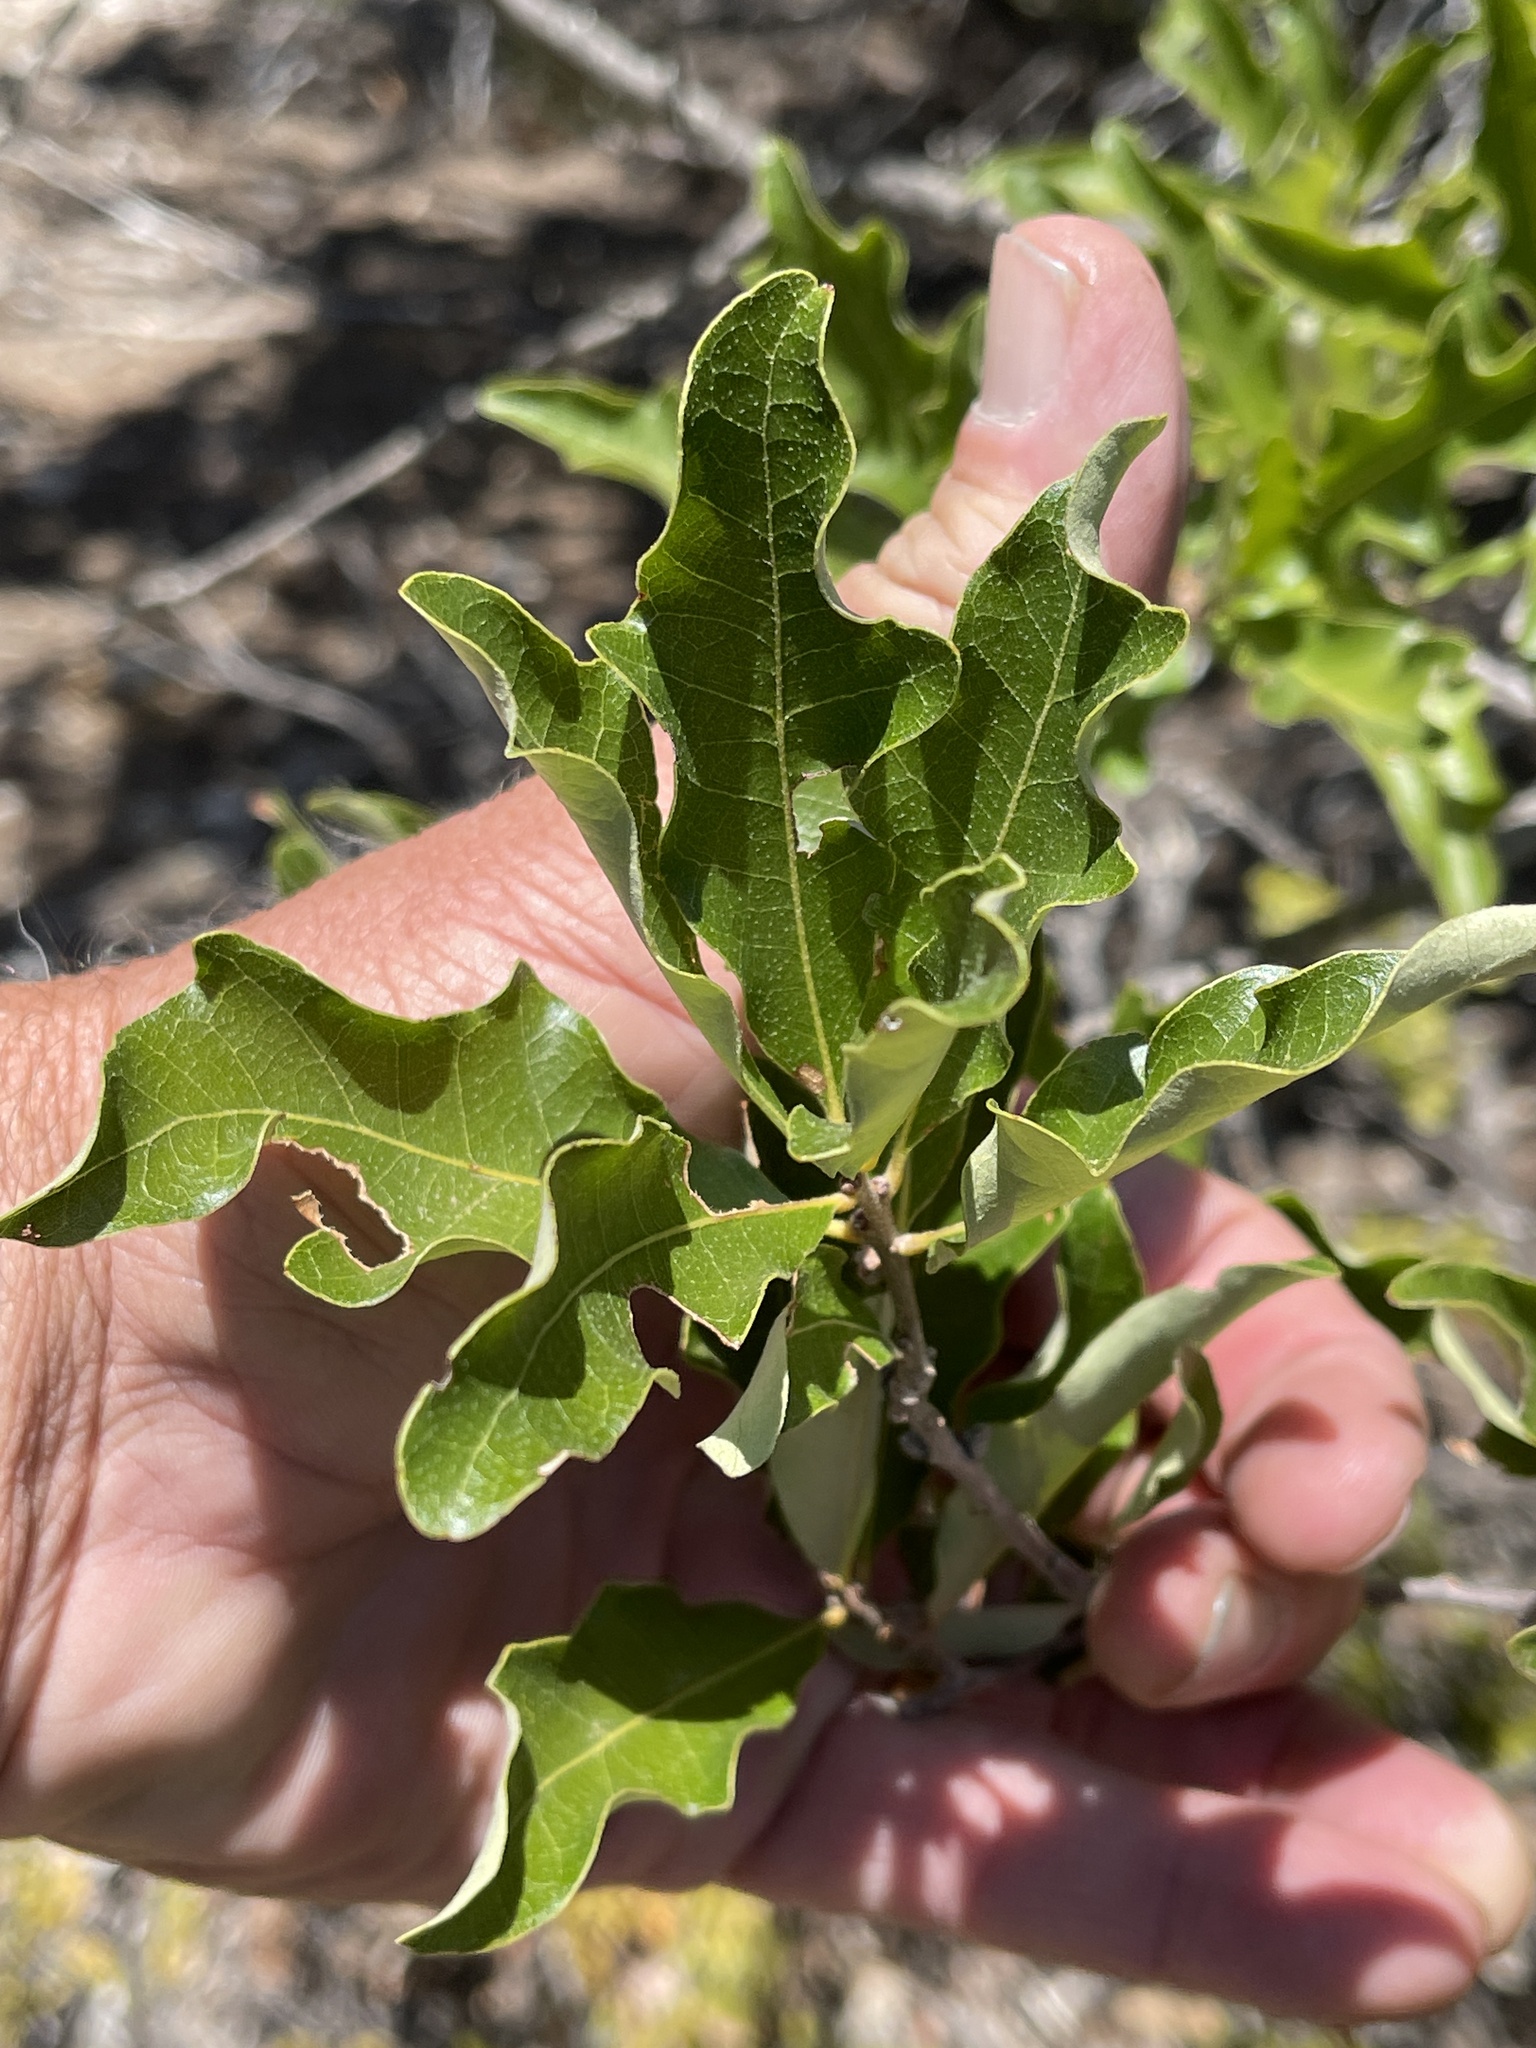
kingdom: Plantae
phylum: Tracheophyta
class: Magnoliopsida
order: Fagales
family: Fagaceae
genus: Quercus
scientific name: Quercus sinuata
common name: Durand oak
